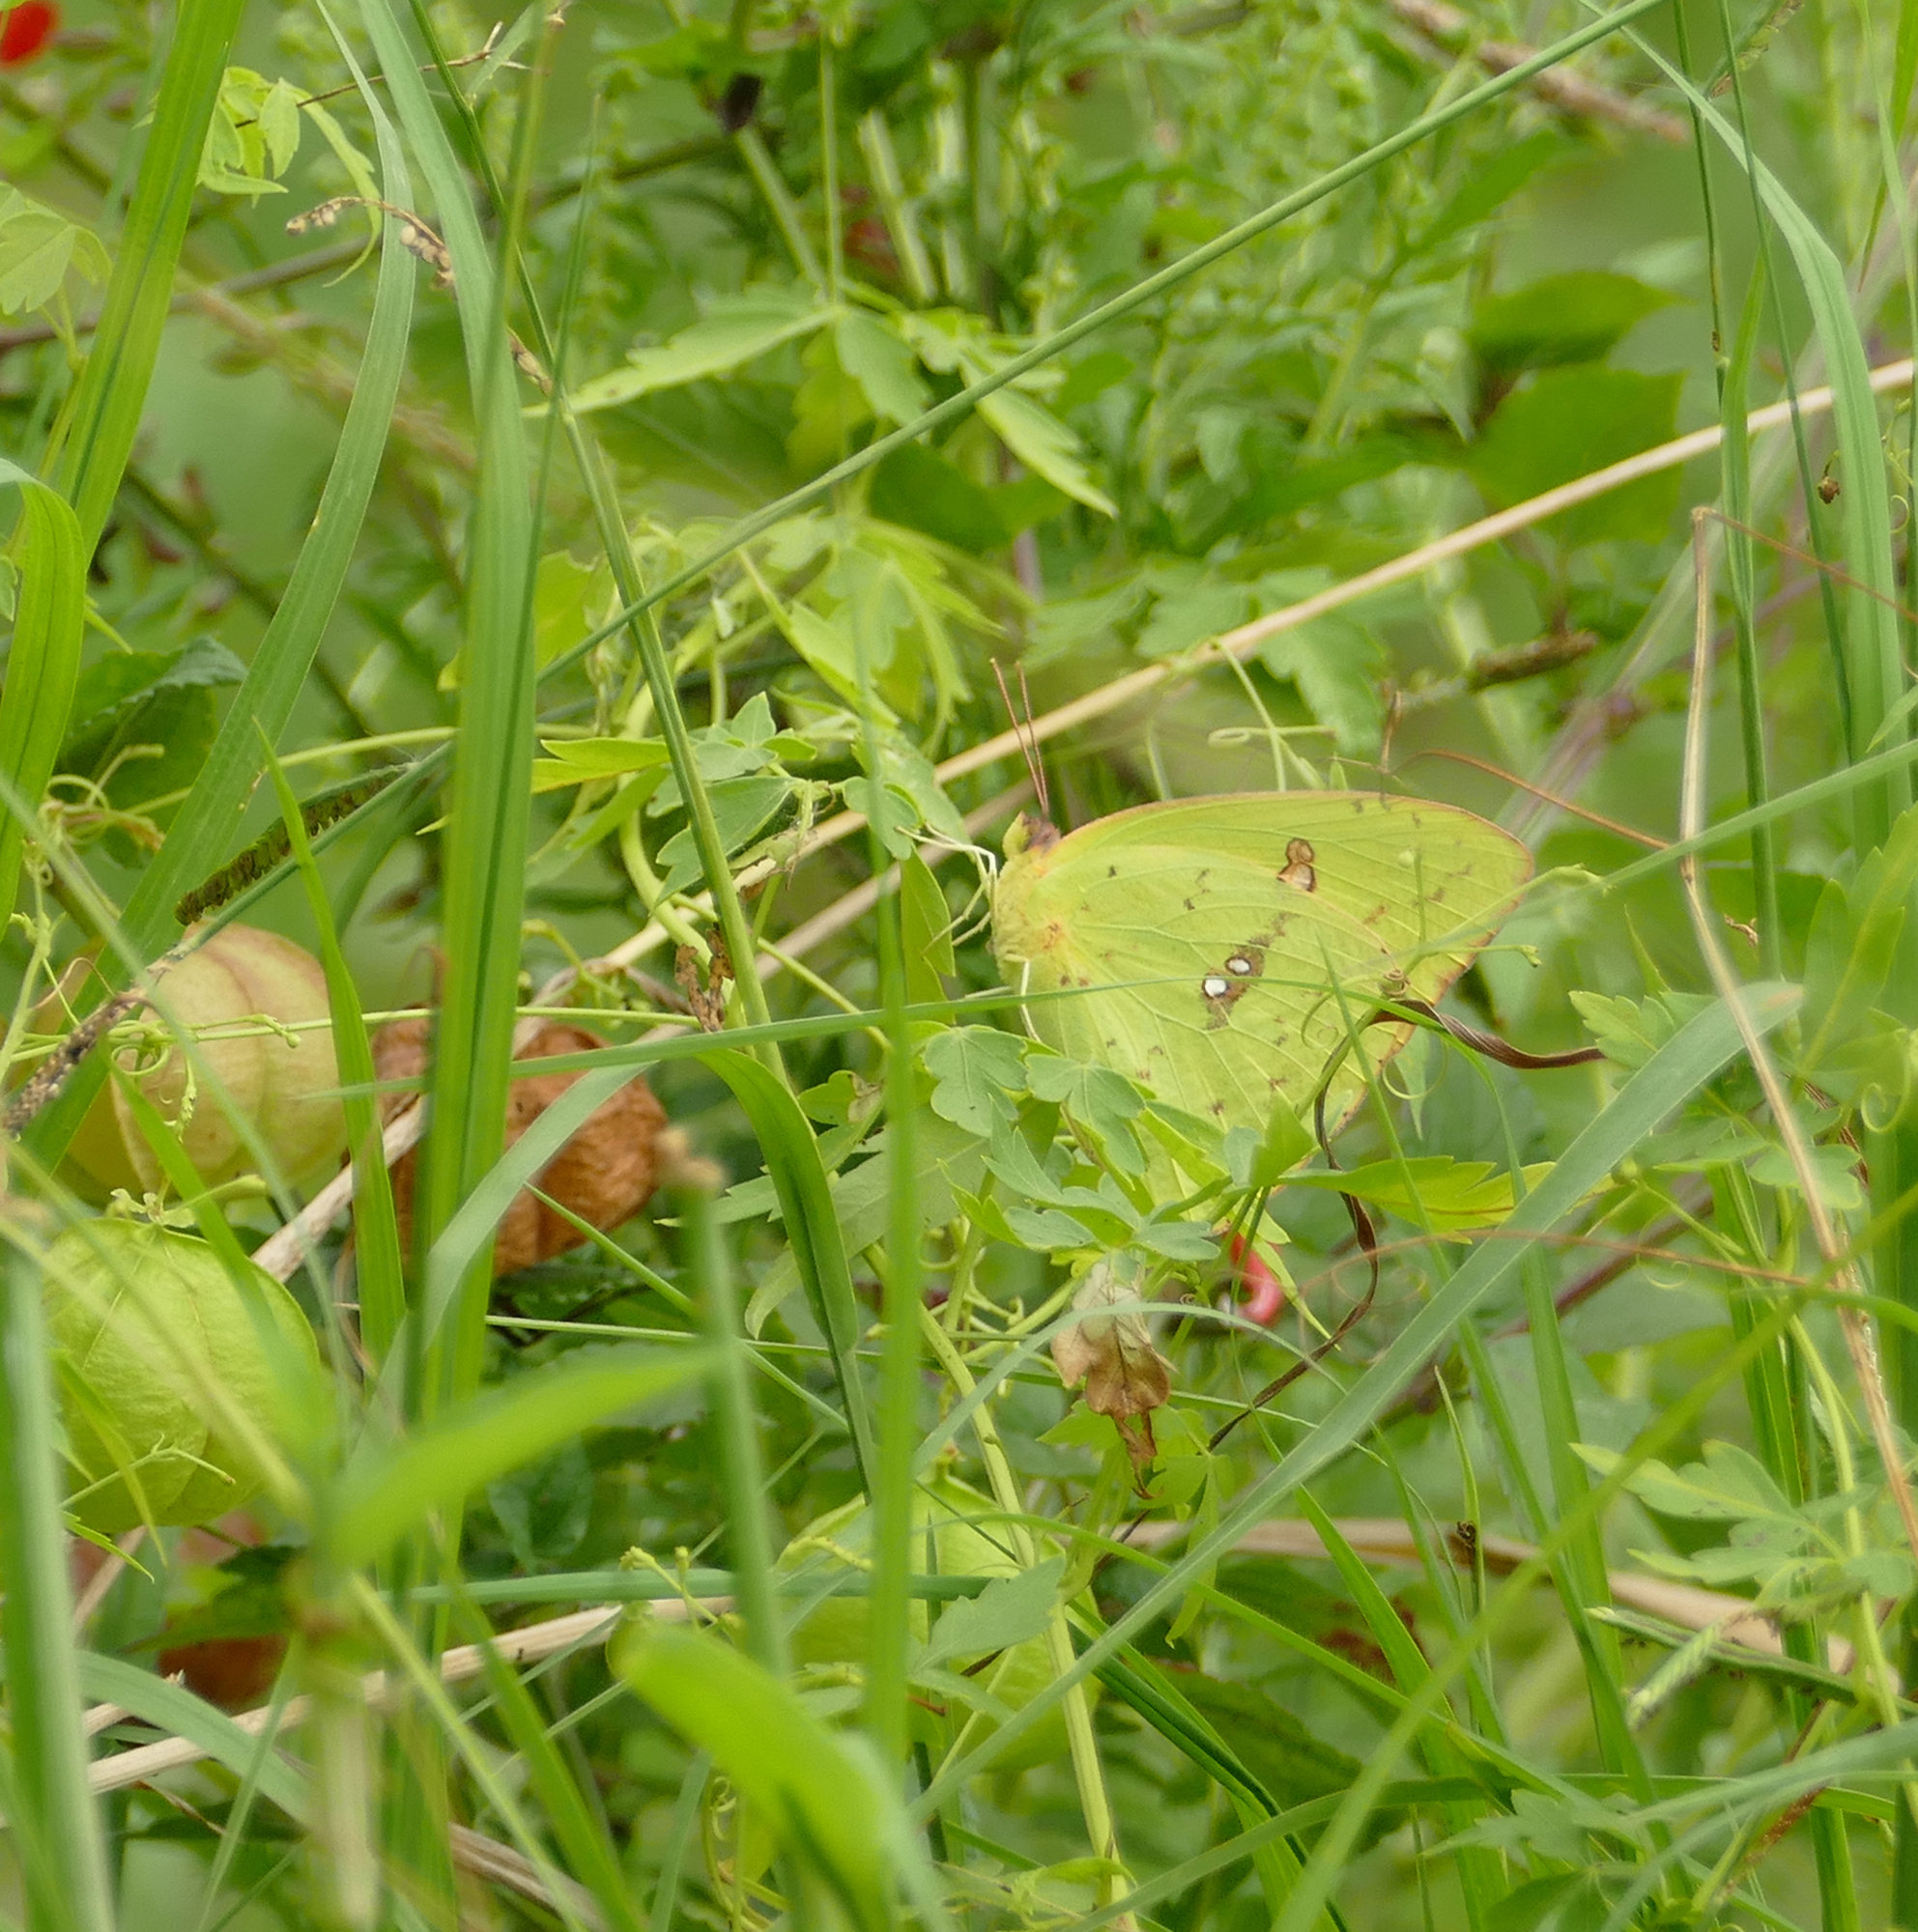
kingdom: Animalia
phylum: Arthropoda
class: Insecta
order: Lepidoptera
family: Pieridae
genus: Phoebis
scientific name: Phoebis sennae
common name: Cloudless sulphur
